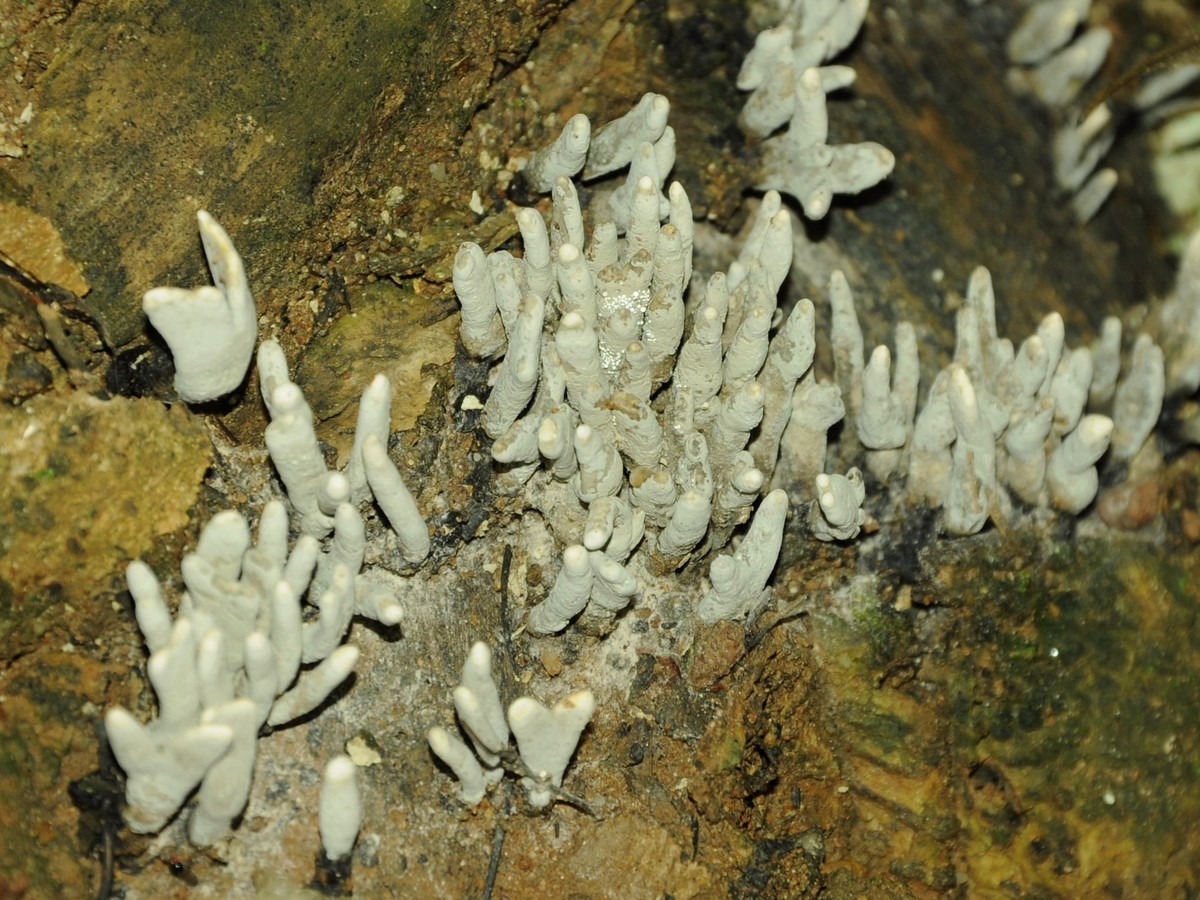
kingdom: Fungi
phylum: Ascomycota
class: Sordariomycetes
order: Xylariales
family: Xylariaceae
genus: Xylaria
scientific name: Xylaria polymorpha
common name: Dead man's fingers
